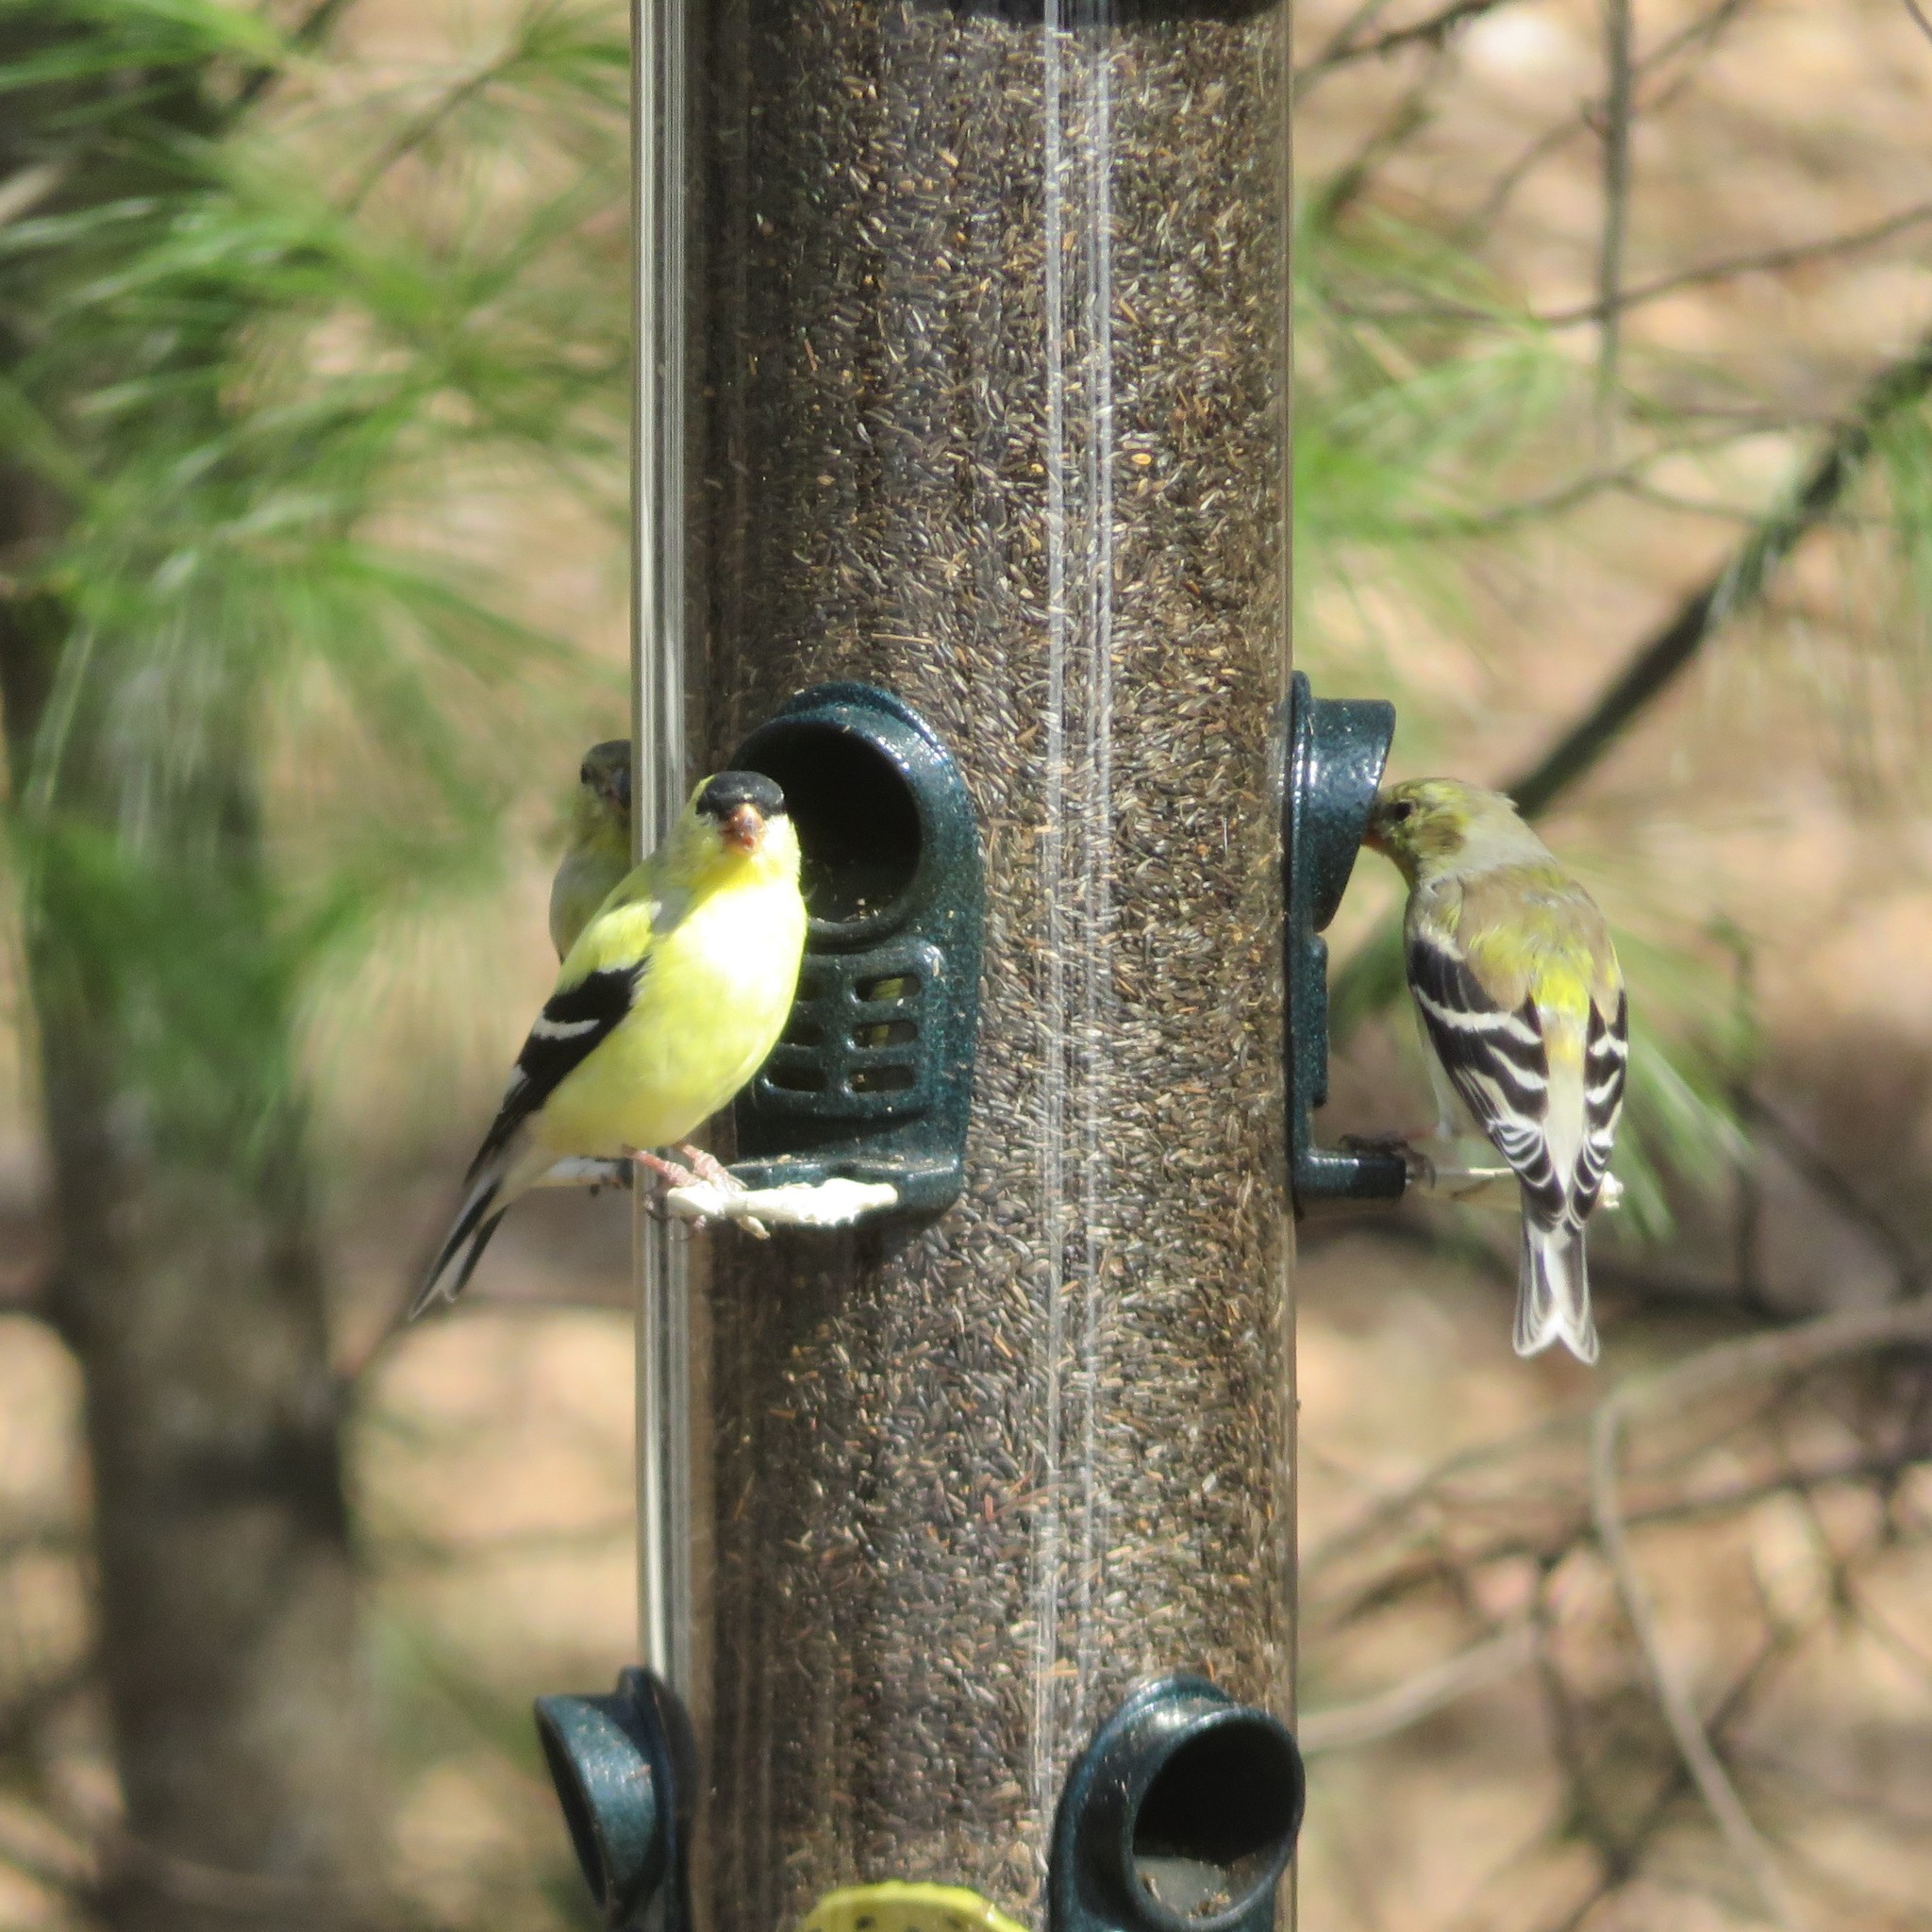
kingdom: Animalia
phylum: Chordata
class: Aves
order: Passeriformes
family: Fringillidae
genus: Spinus
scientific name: Spinus tristis
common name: American goldfinch
